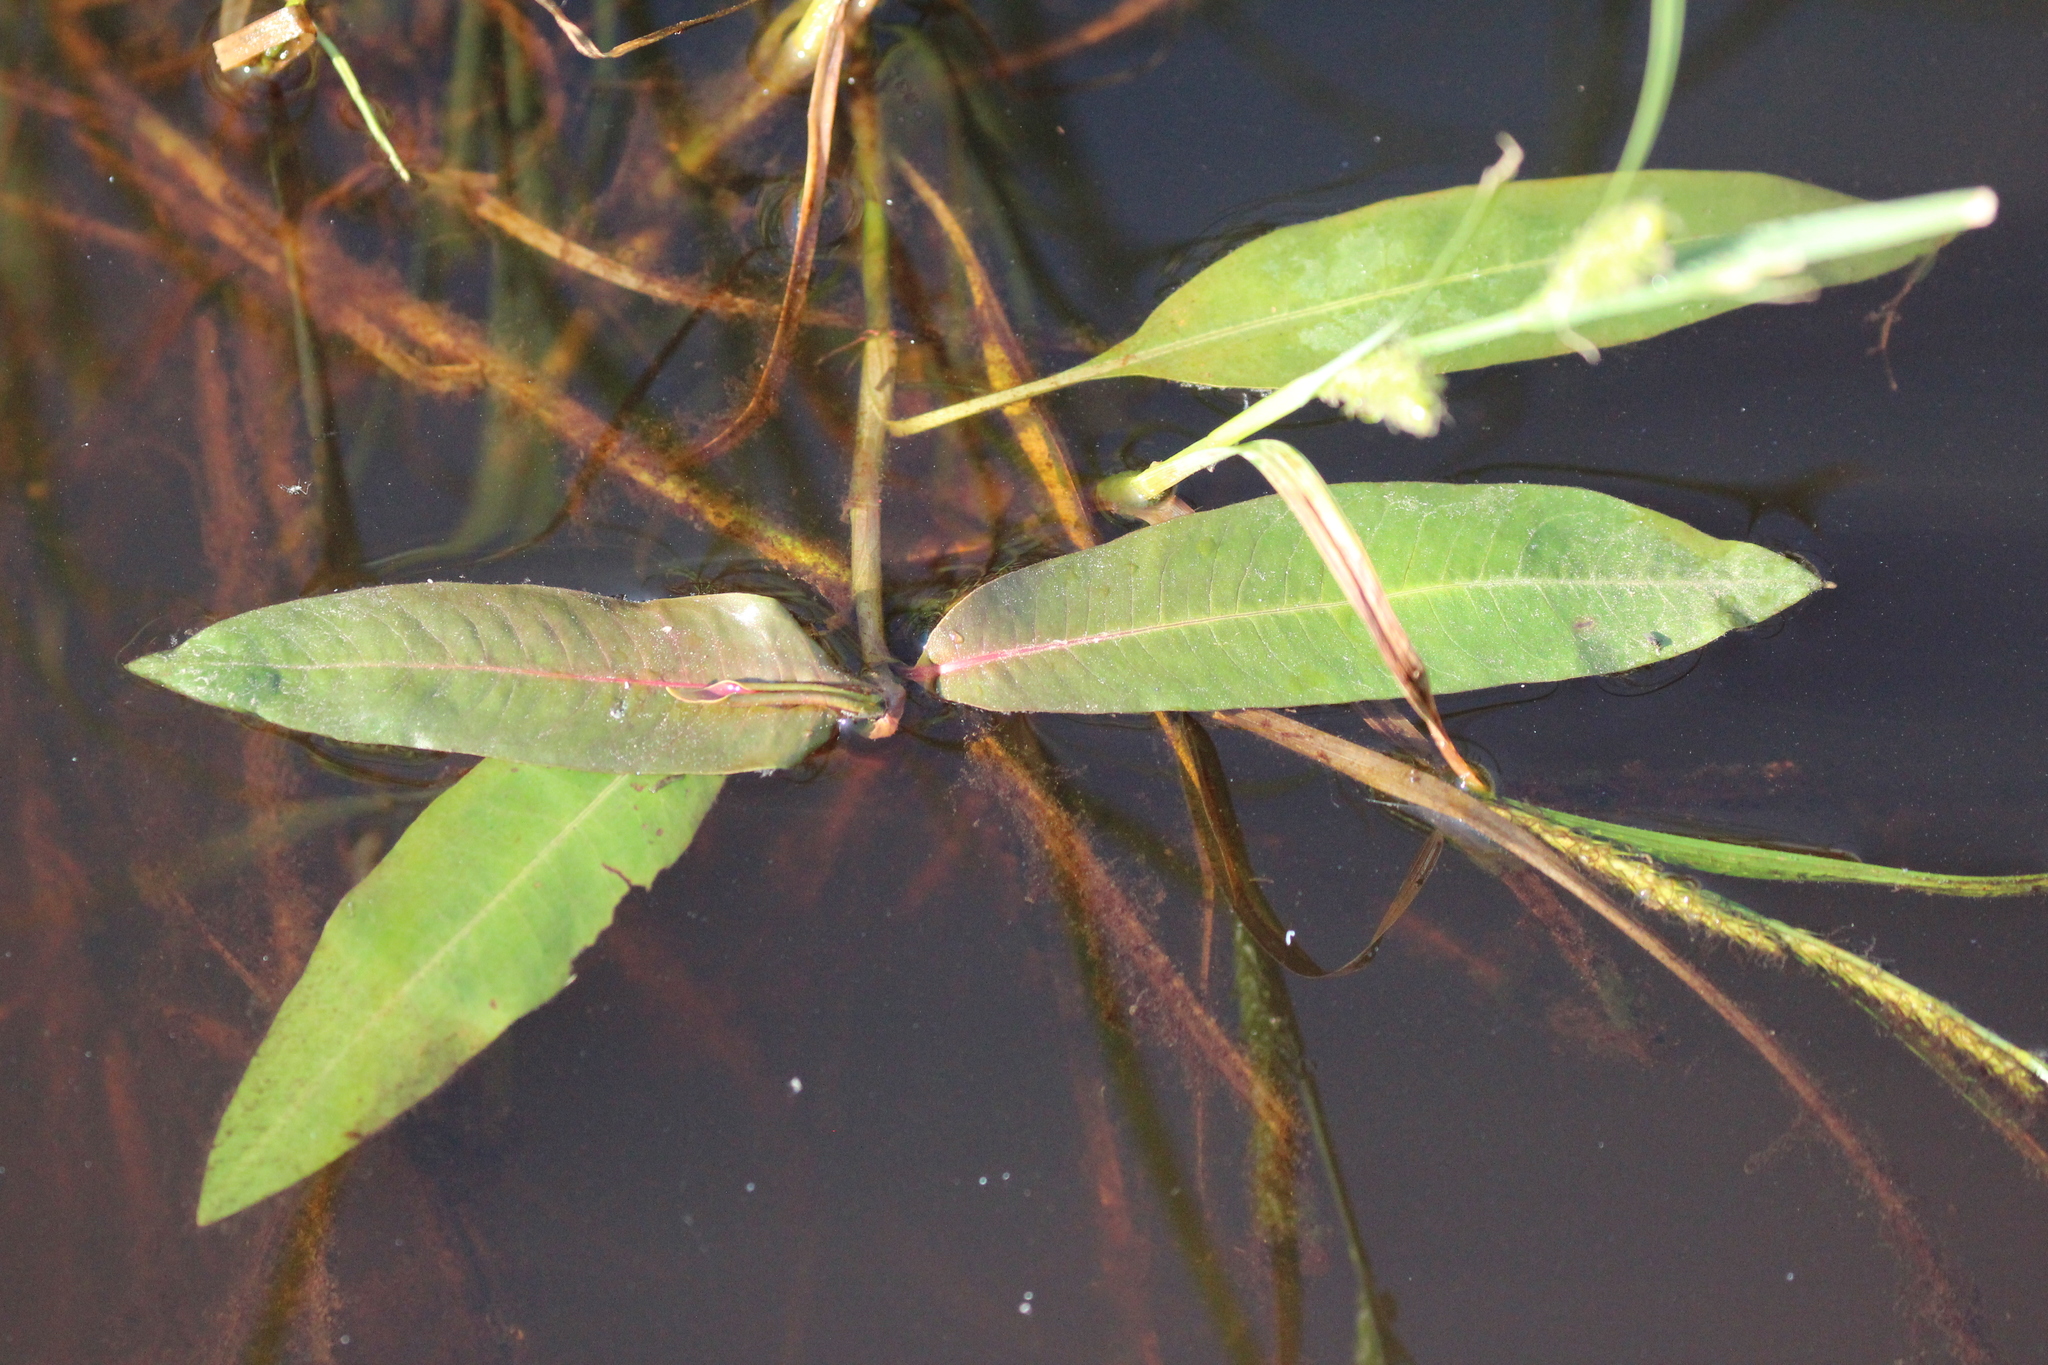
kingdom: Plantae
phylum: Tracheophyta
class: Magnoliopsida
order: Caryophyllales
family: Polygonaceae
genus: Persicaria
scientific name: Persicaria amphibia
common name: Amphibious bistort
